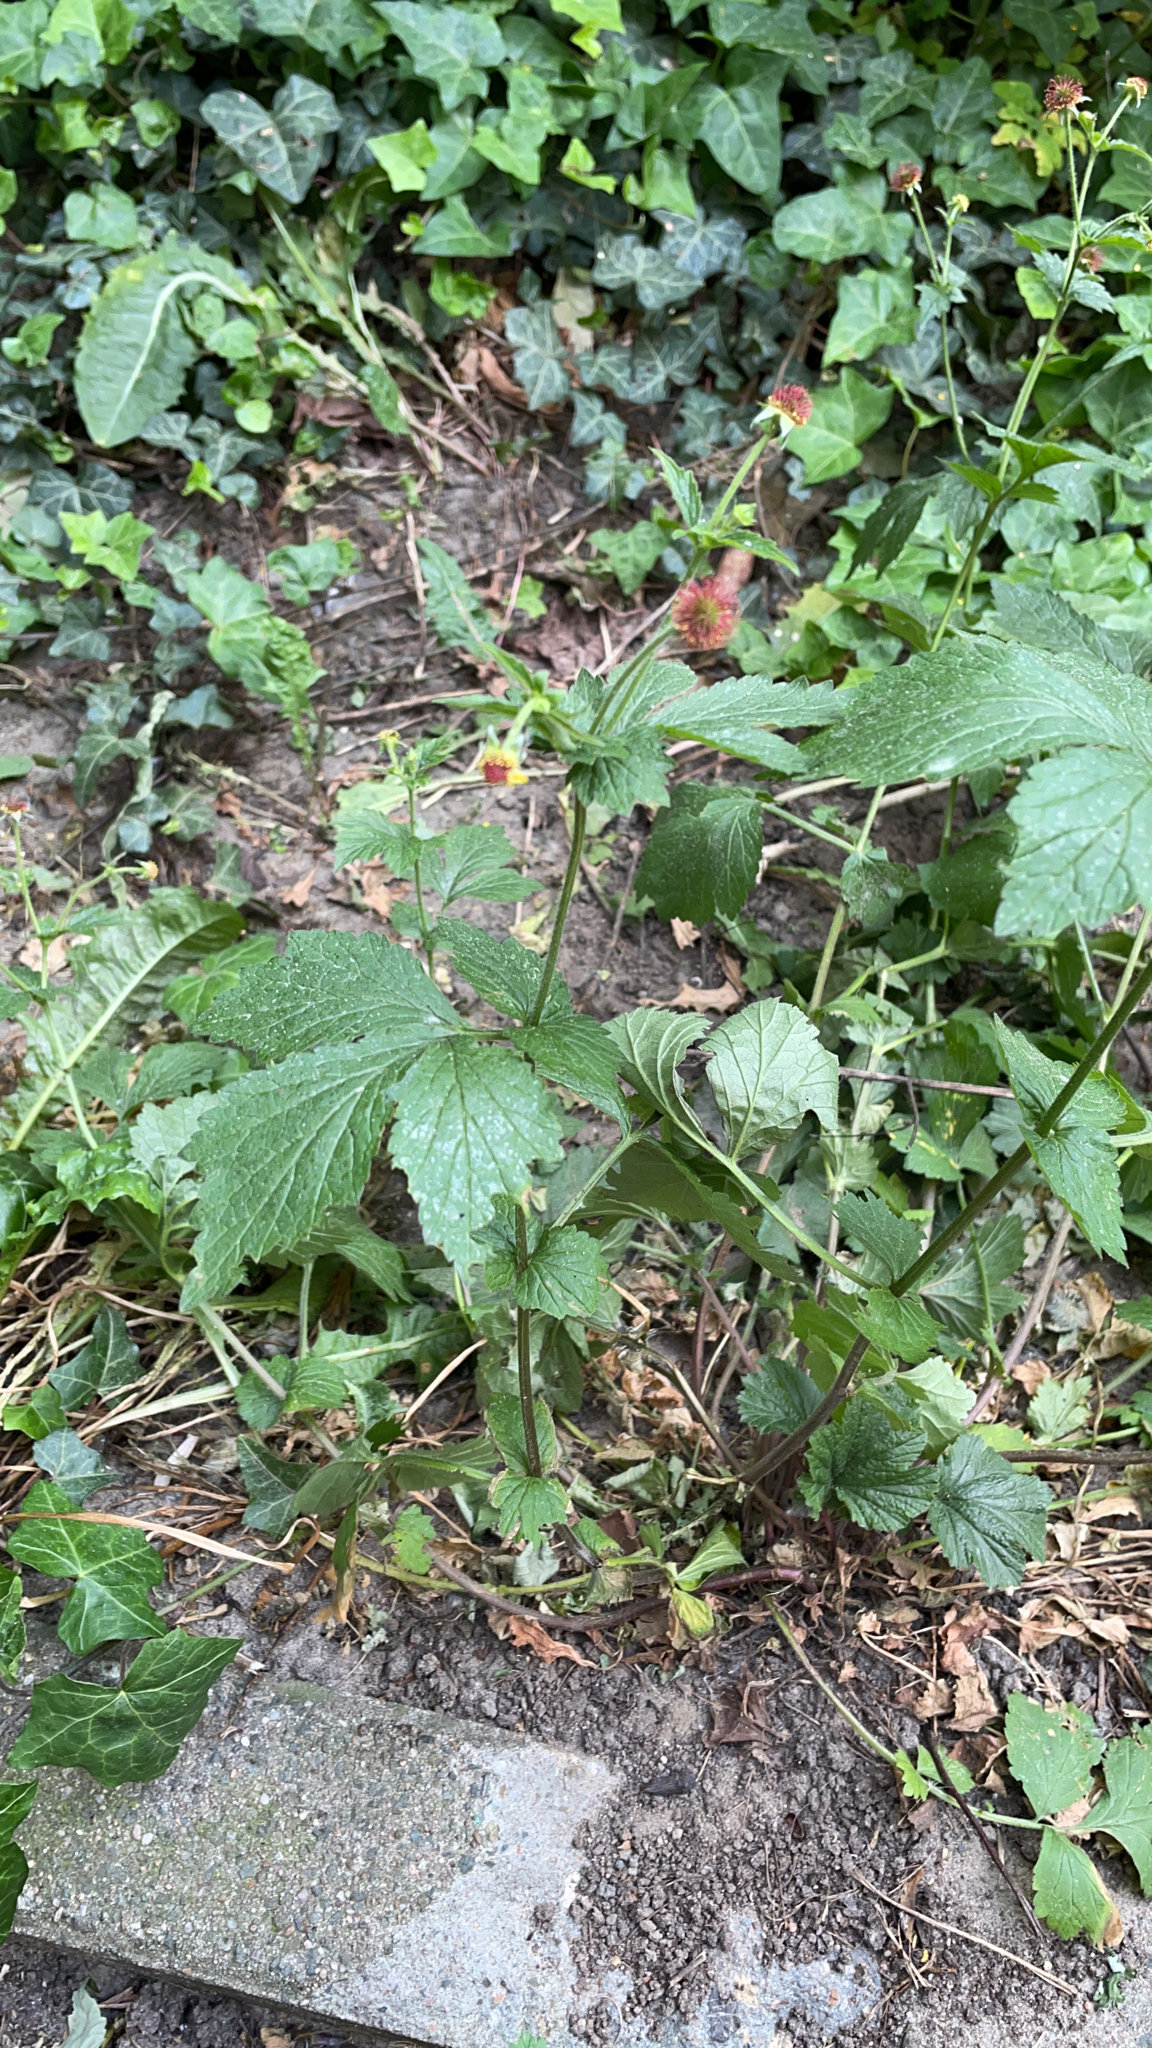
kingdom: Plantae
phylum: Tracheophyta
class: Magnoliopsida
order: Rosales
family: Rosaceae
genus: Geum
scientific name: Geum urbanum
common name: Wood avens
